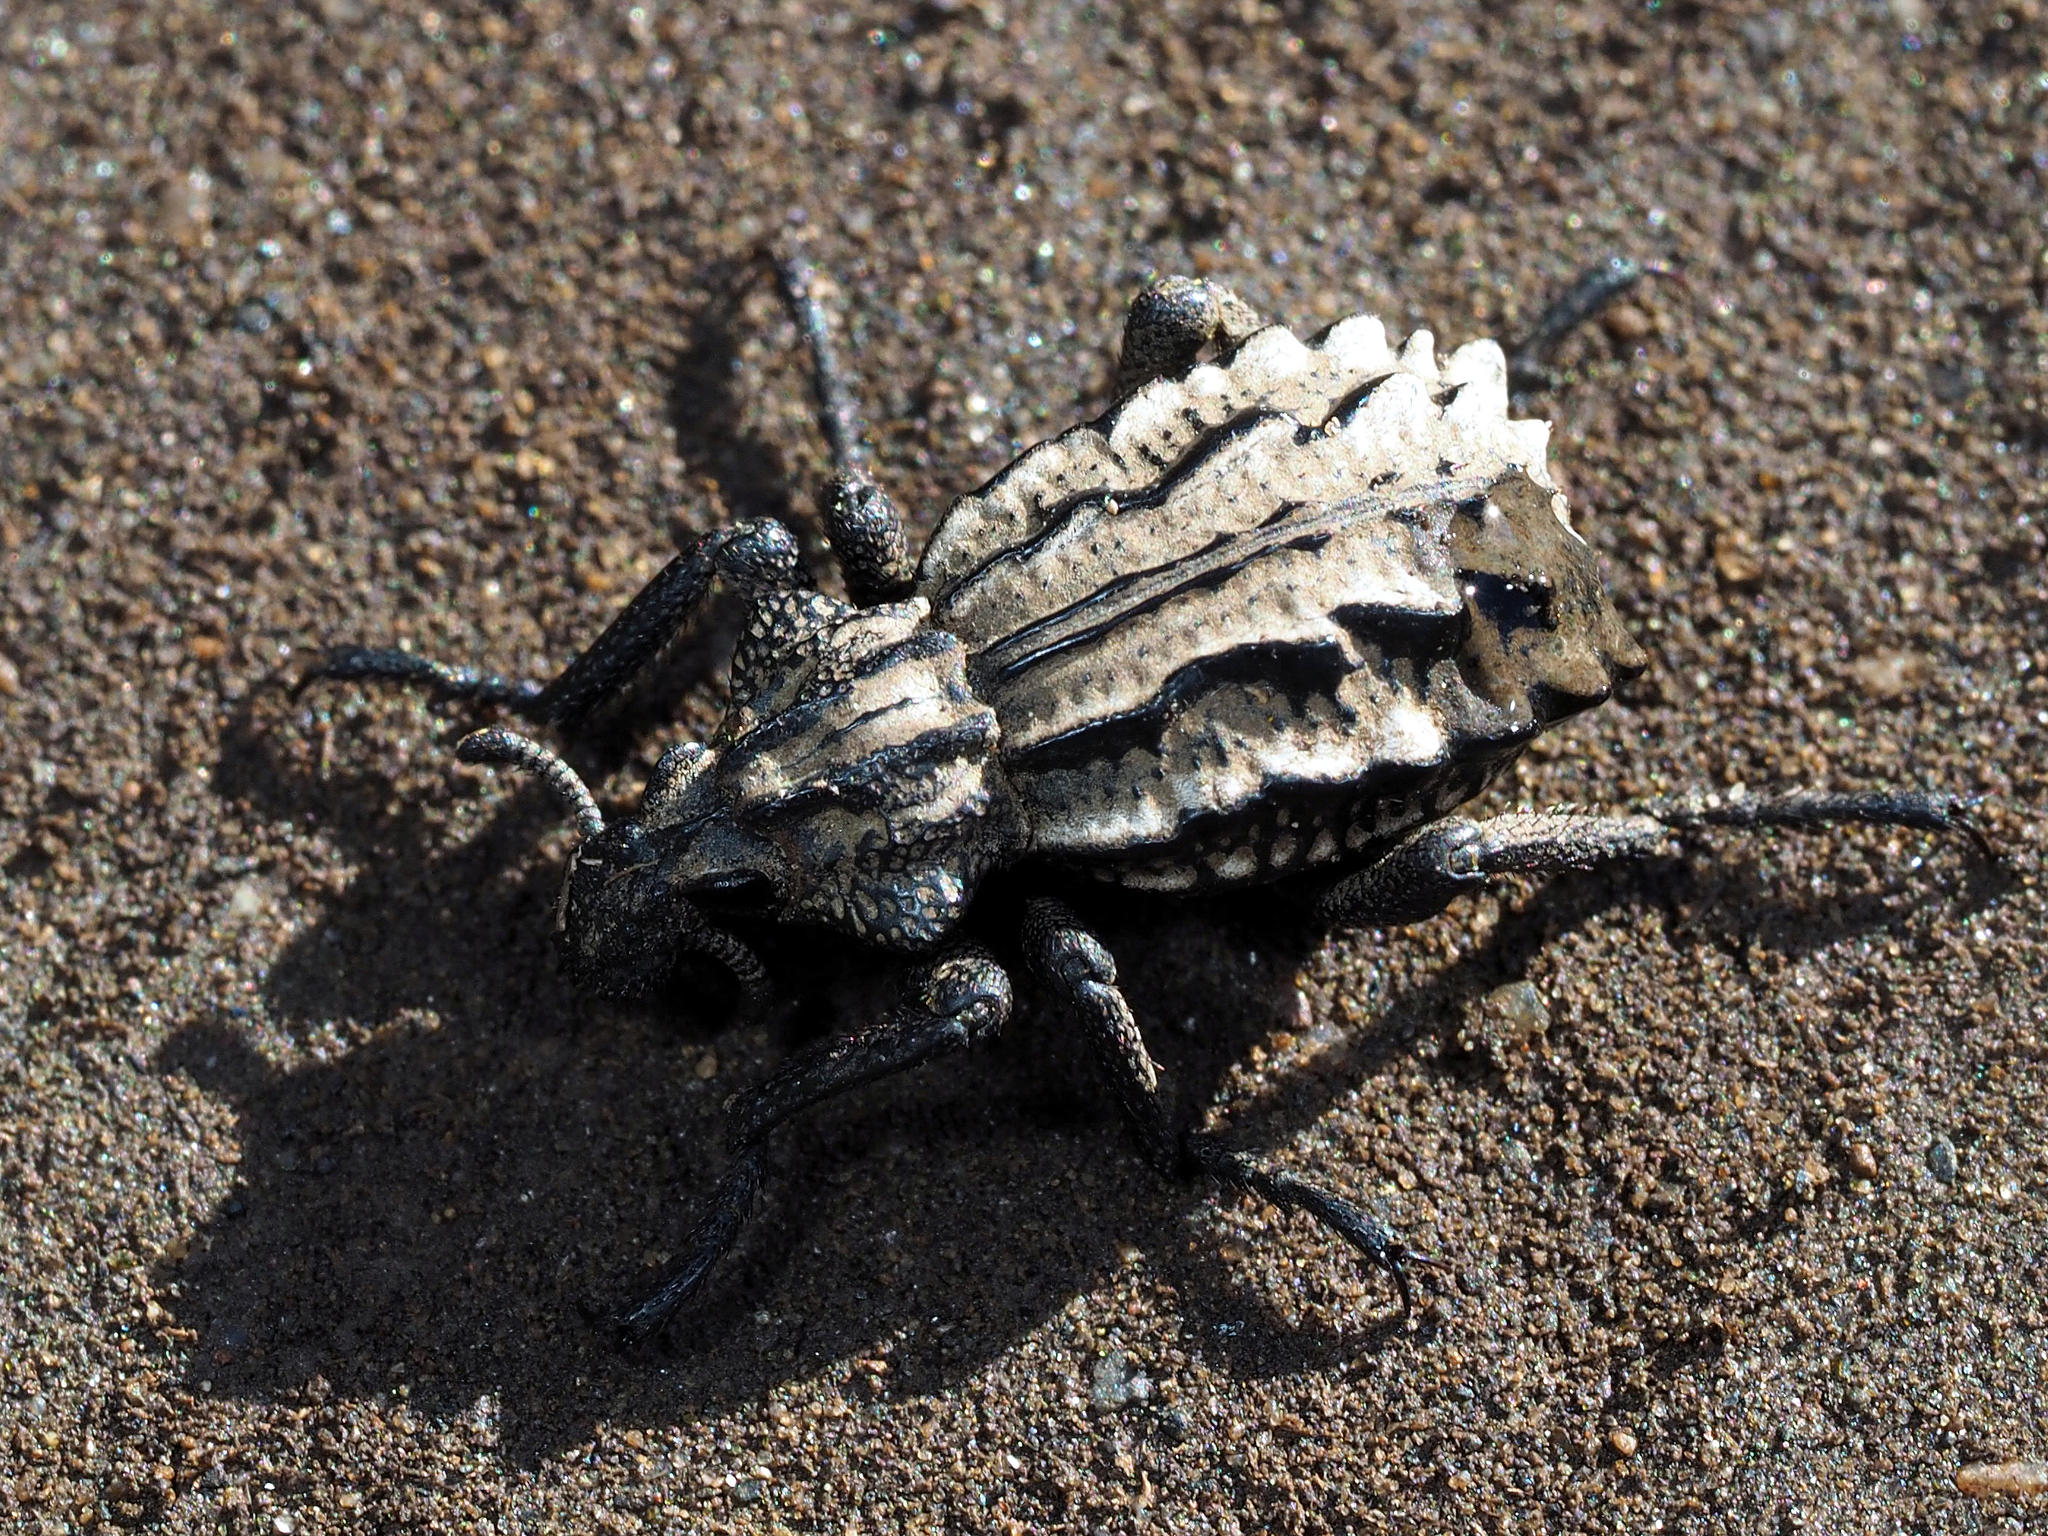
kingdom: Animalia
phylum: Arthropoda
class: Insecta
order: Coleoptera
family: Brachyceridae
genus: Brachycerus
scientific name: Brachycerus albidentatus
